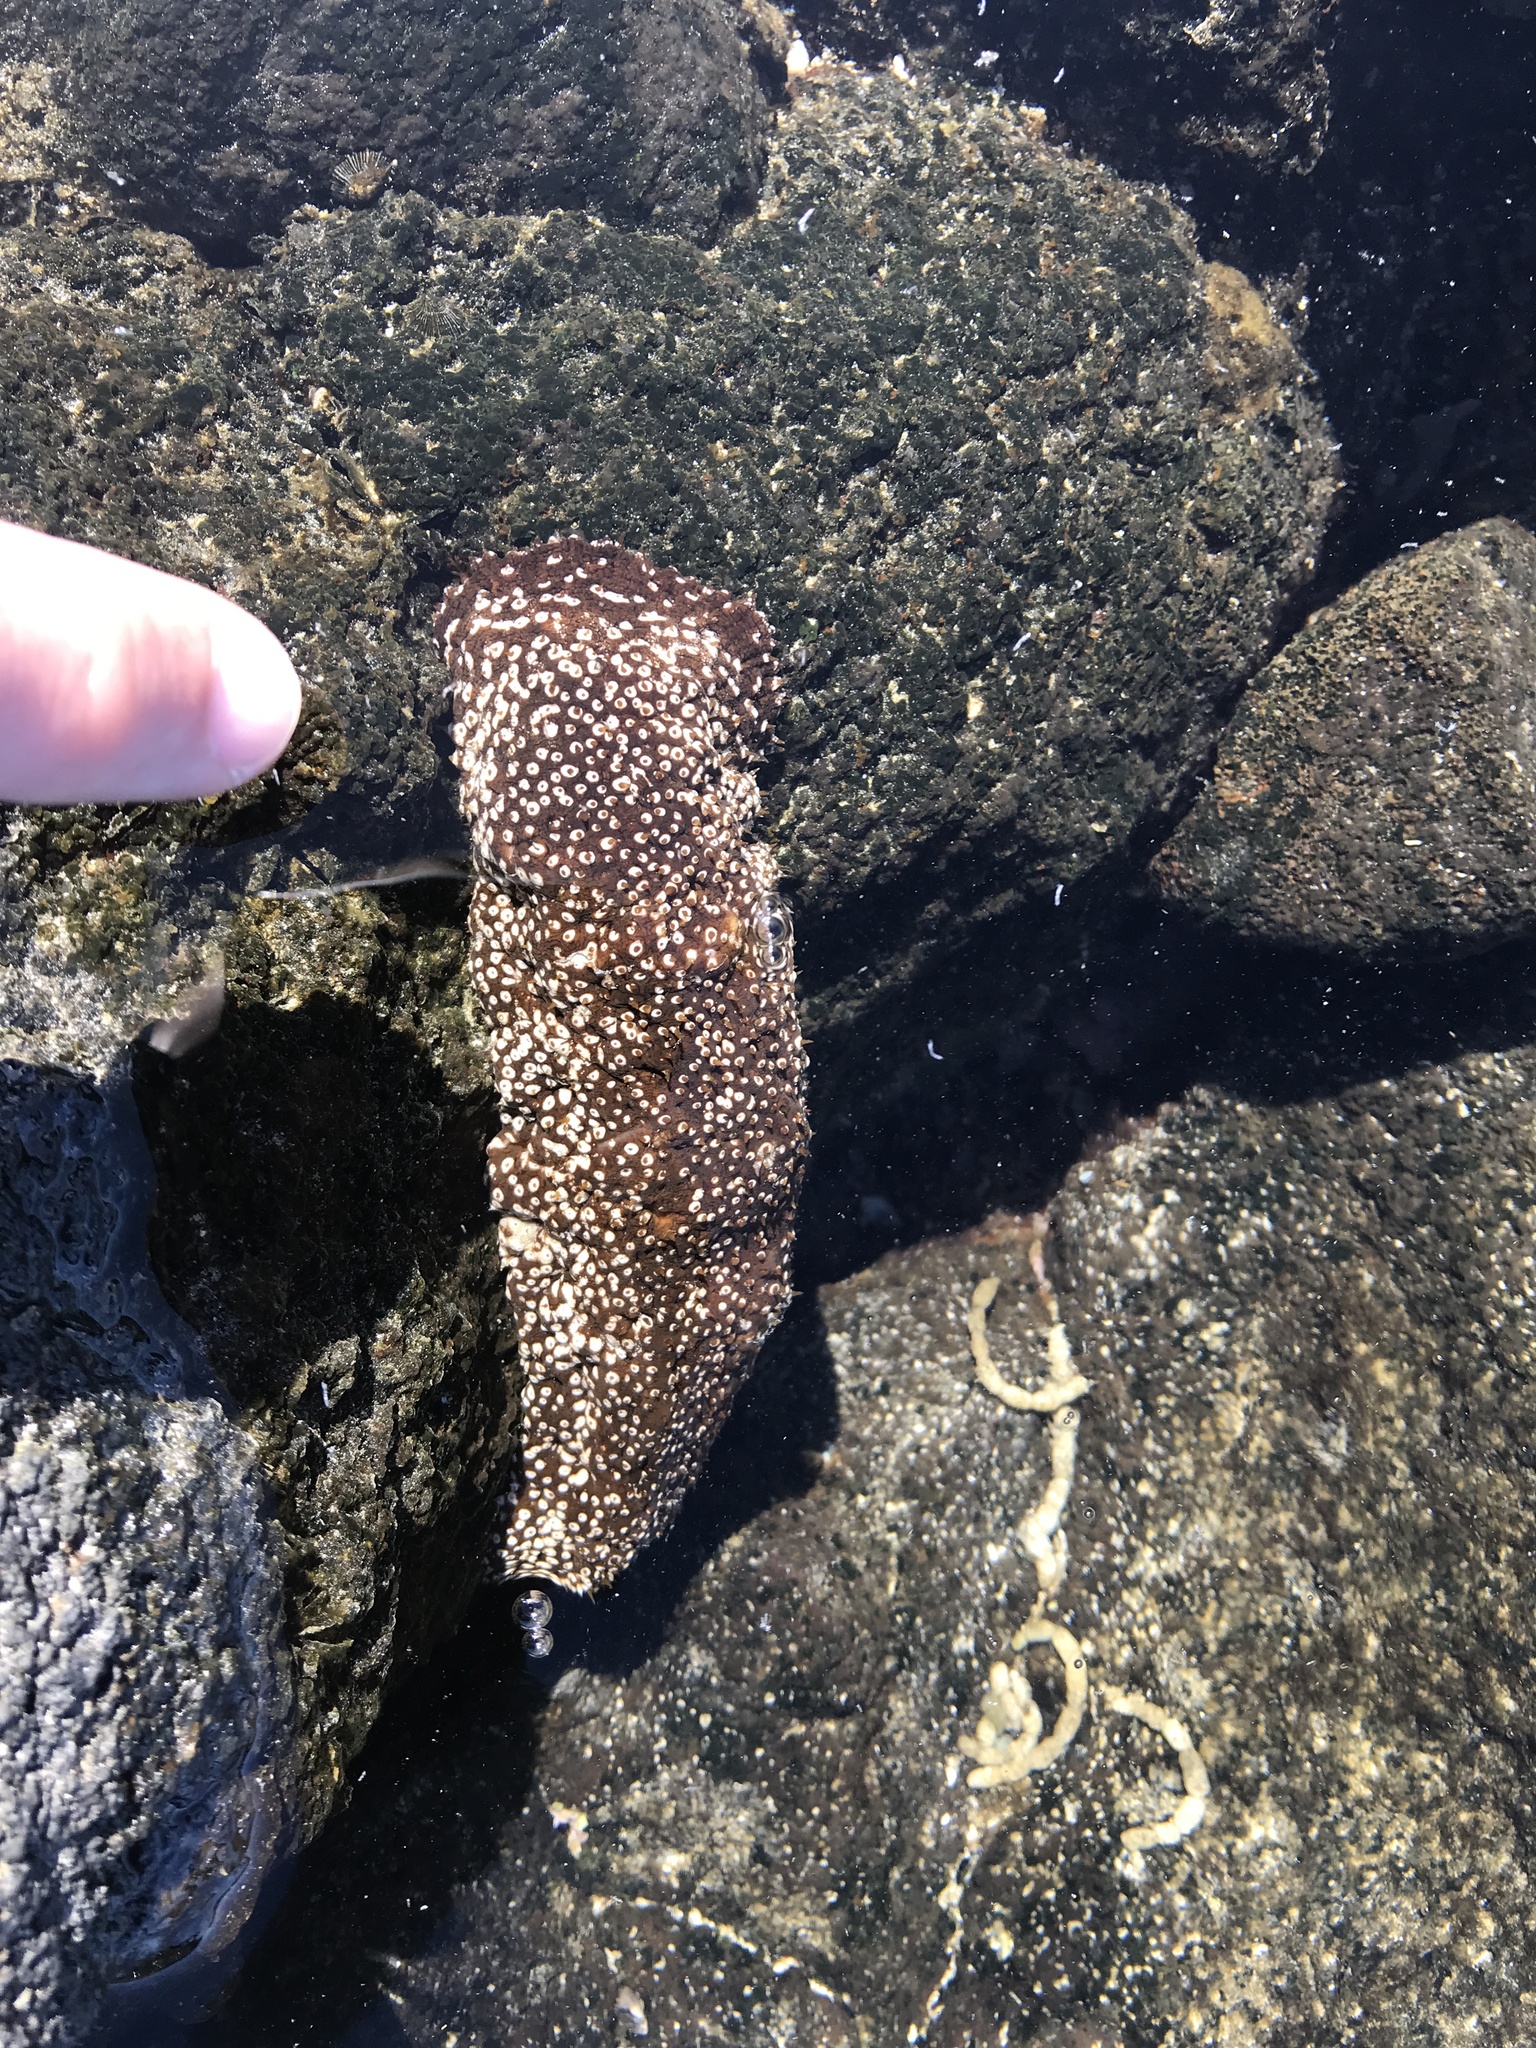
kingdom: Animalia
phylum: Echinodermata
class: Holothuroidea
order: Holothuriida
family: Holothuriidae
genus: Actinopyga
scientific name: Actinopyga varians
